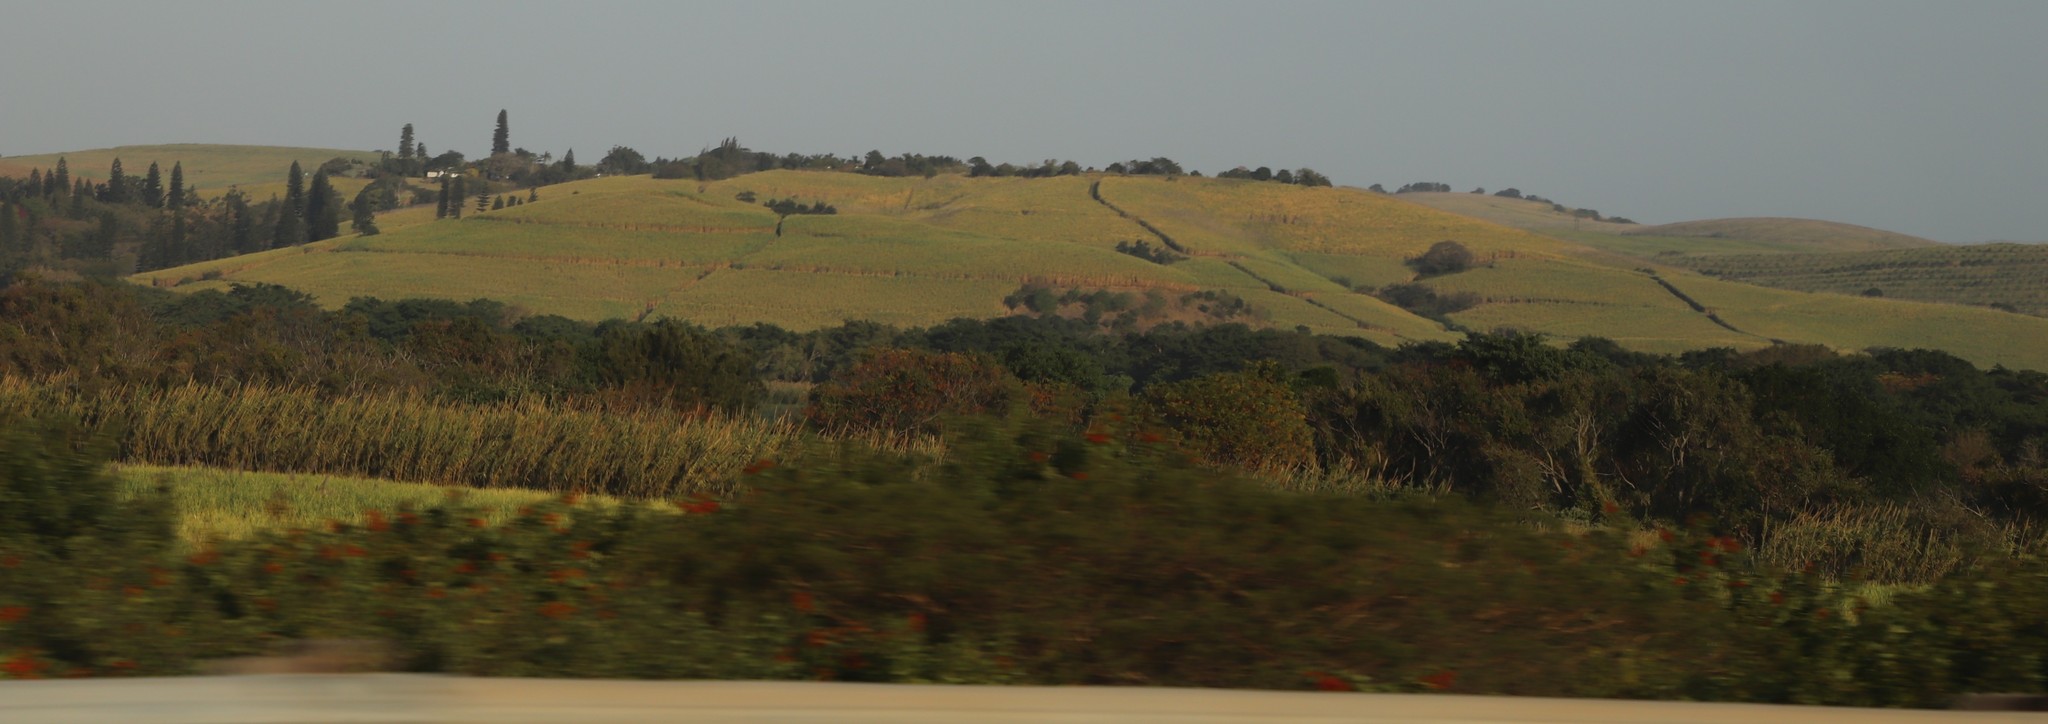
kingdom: Plantae
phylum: Tracheophyta
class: Liliopsida
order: Poales
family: Poaceae
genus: Saccharum
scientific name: Saccharum officinarum
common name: Sugarcane
